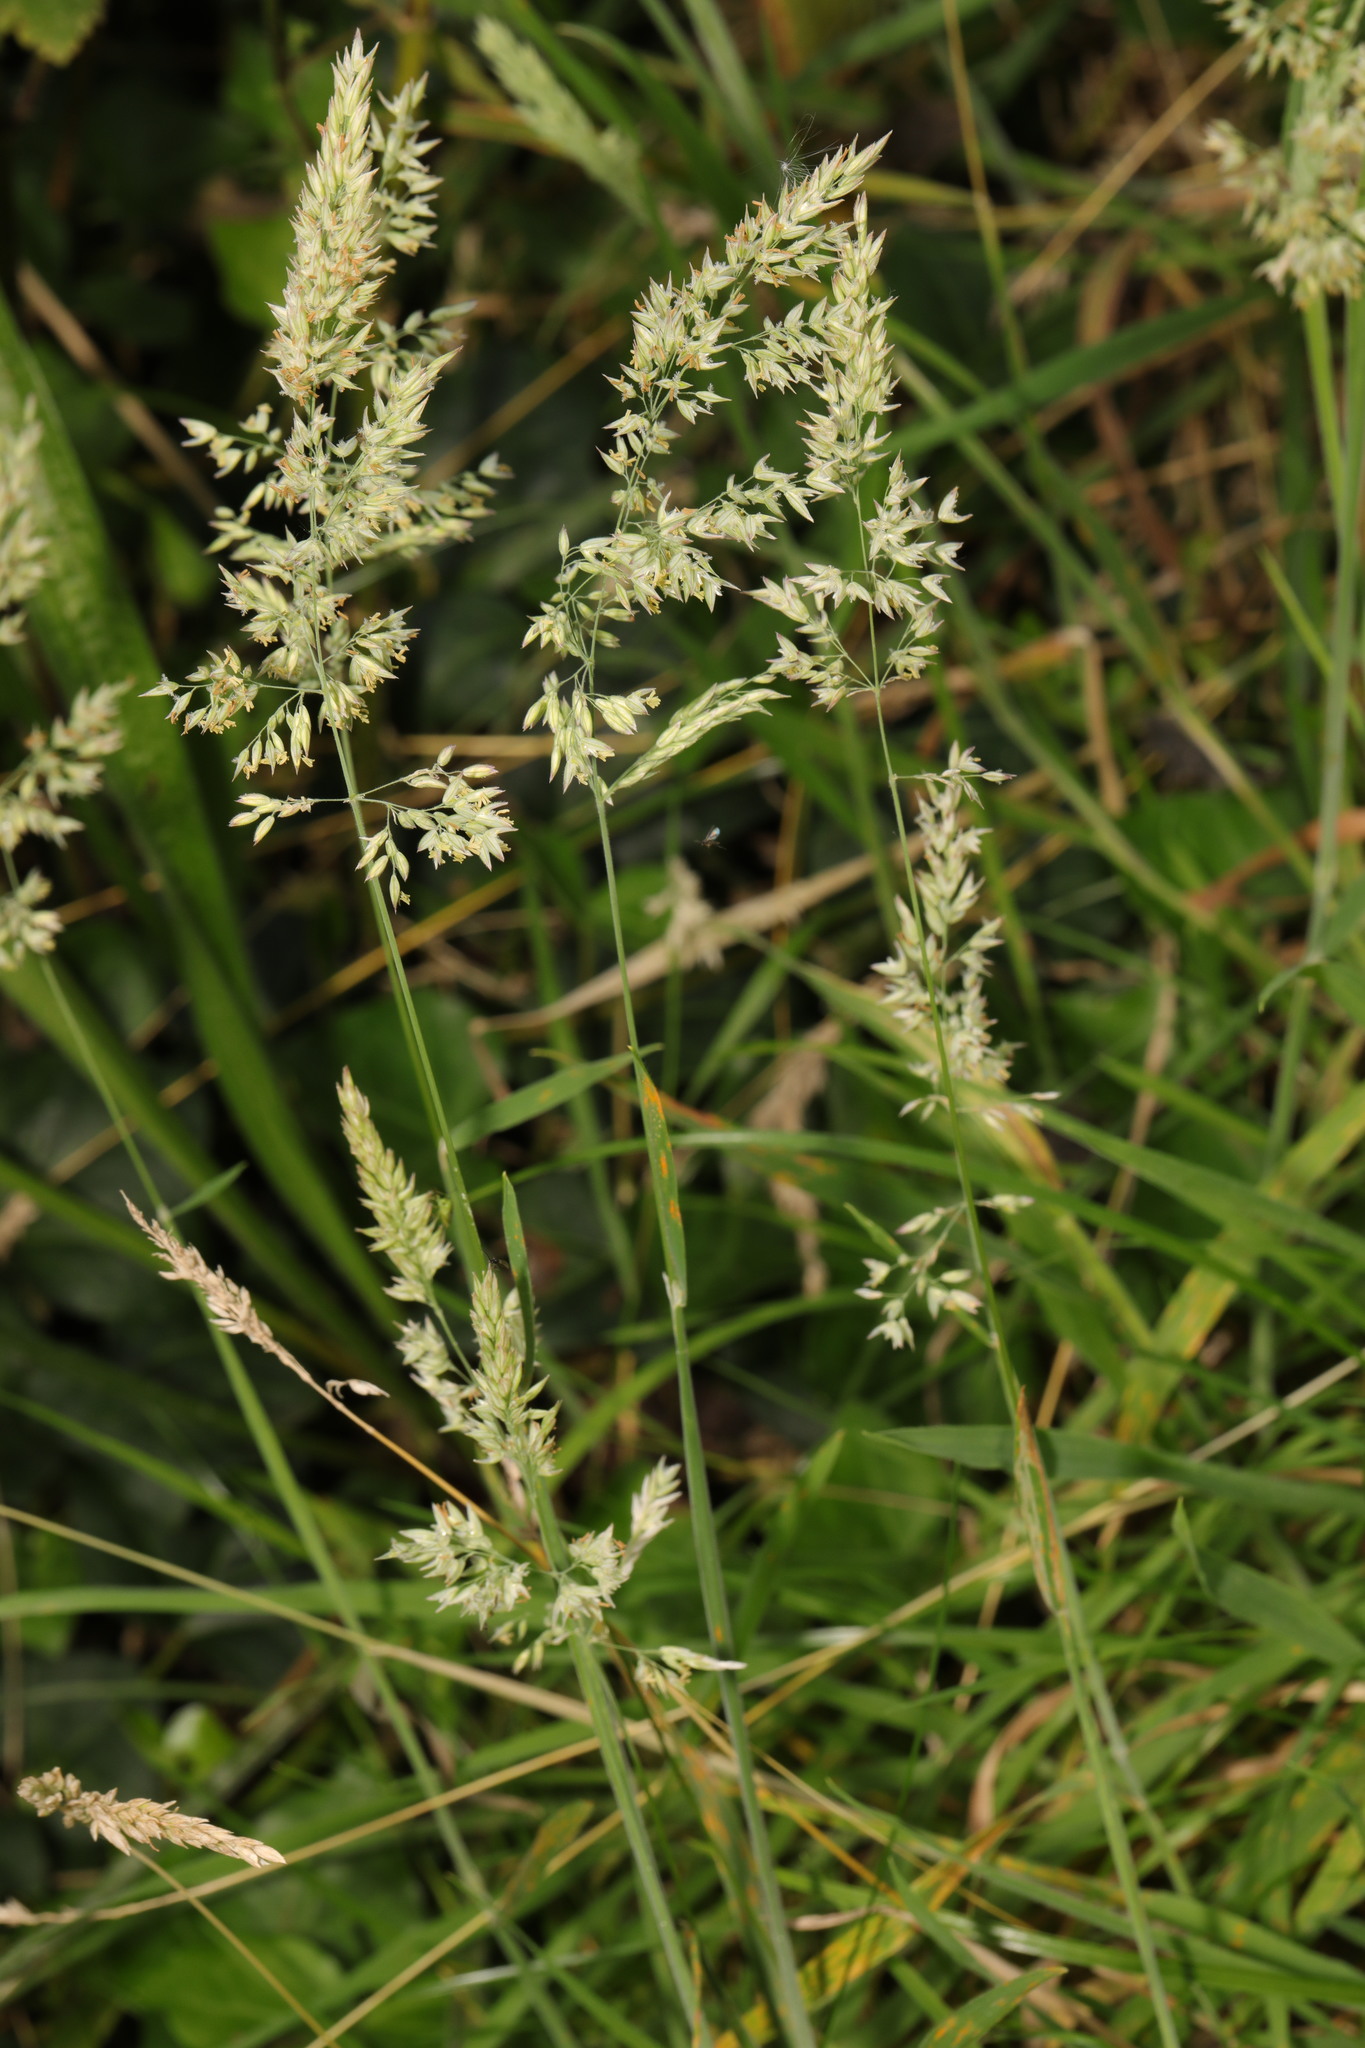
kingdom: Plantae
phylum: Tracheophyta
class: Liliopsida
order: Poales
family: Poaceae
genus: Holcus
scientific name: Holcus lanatus
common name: Yorkshire-fog
